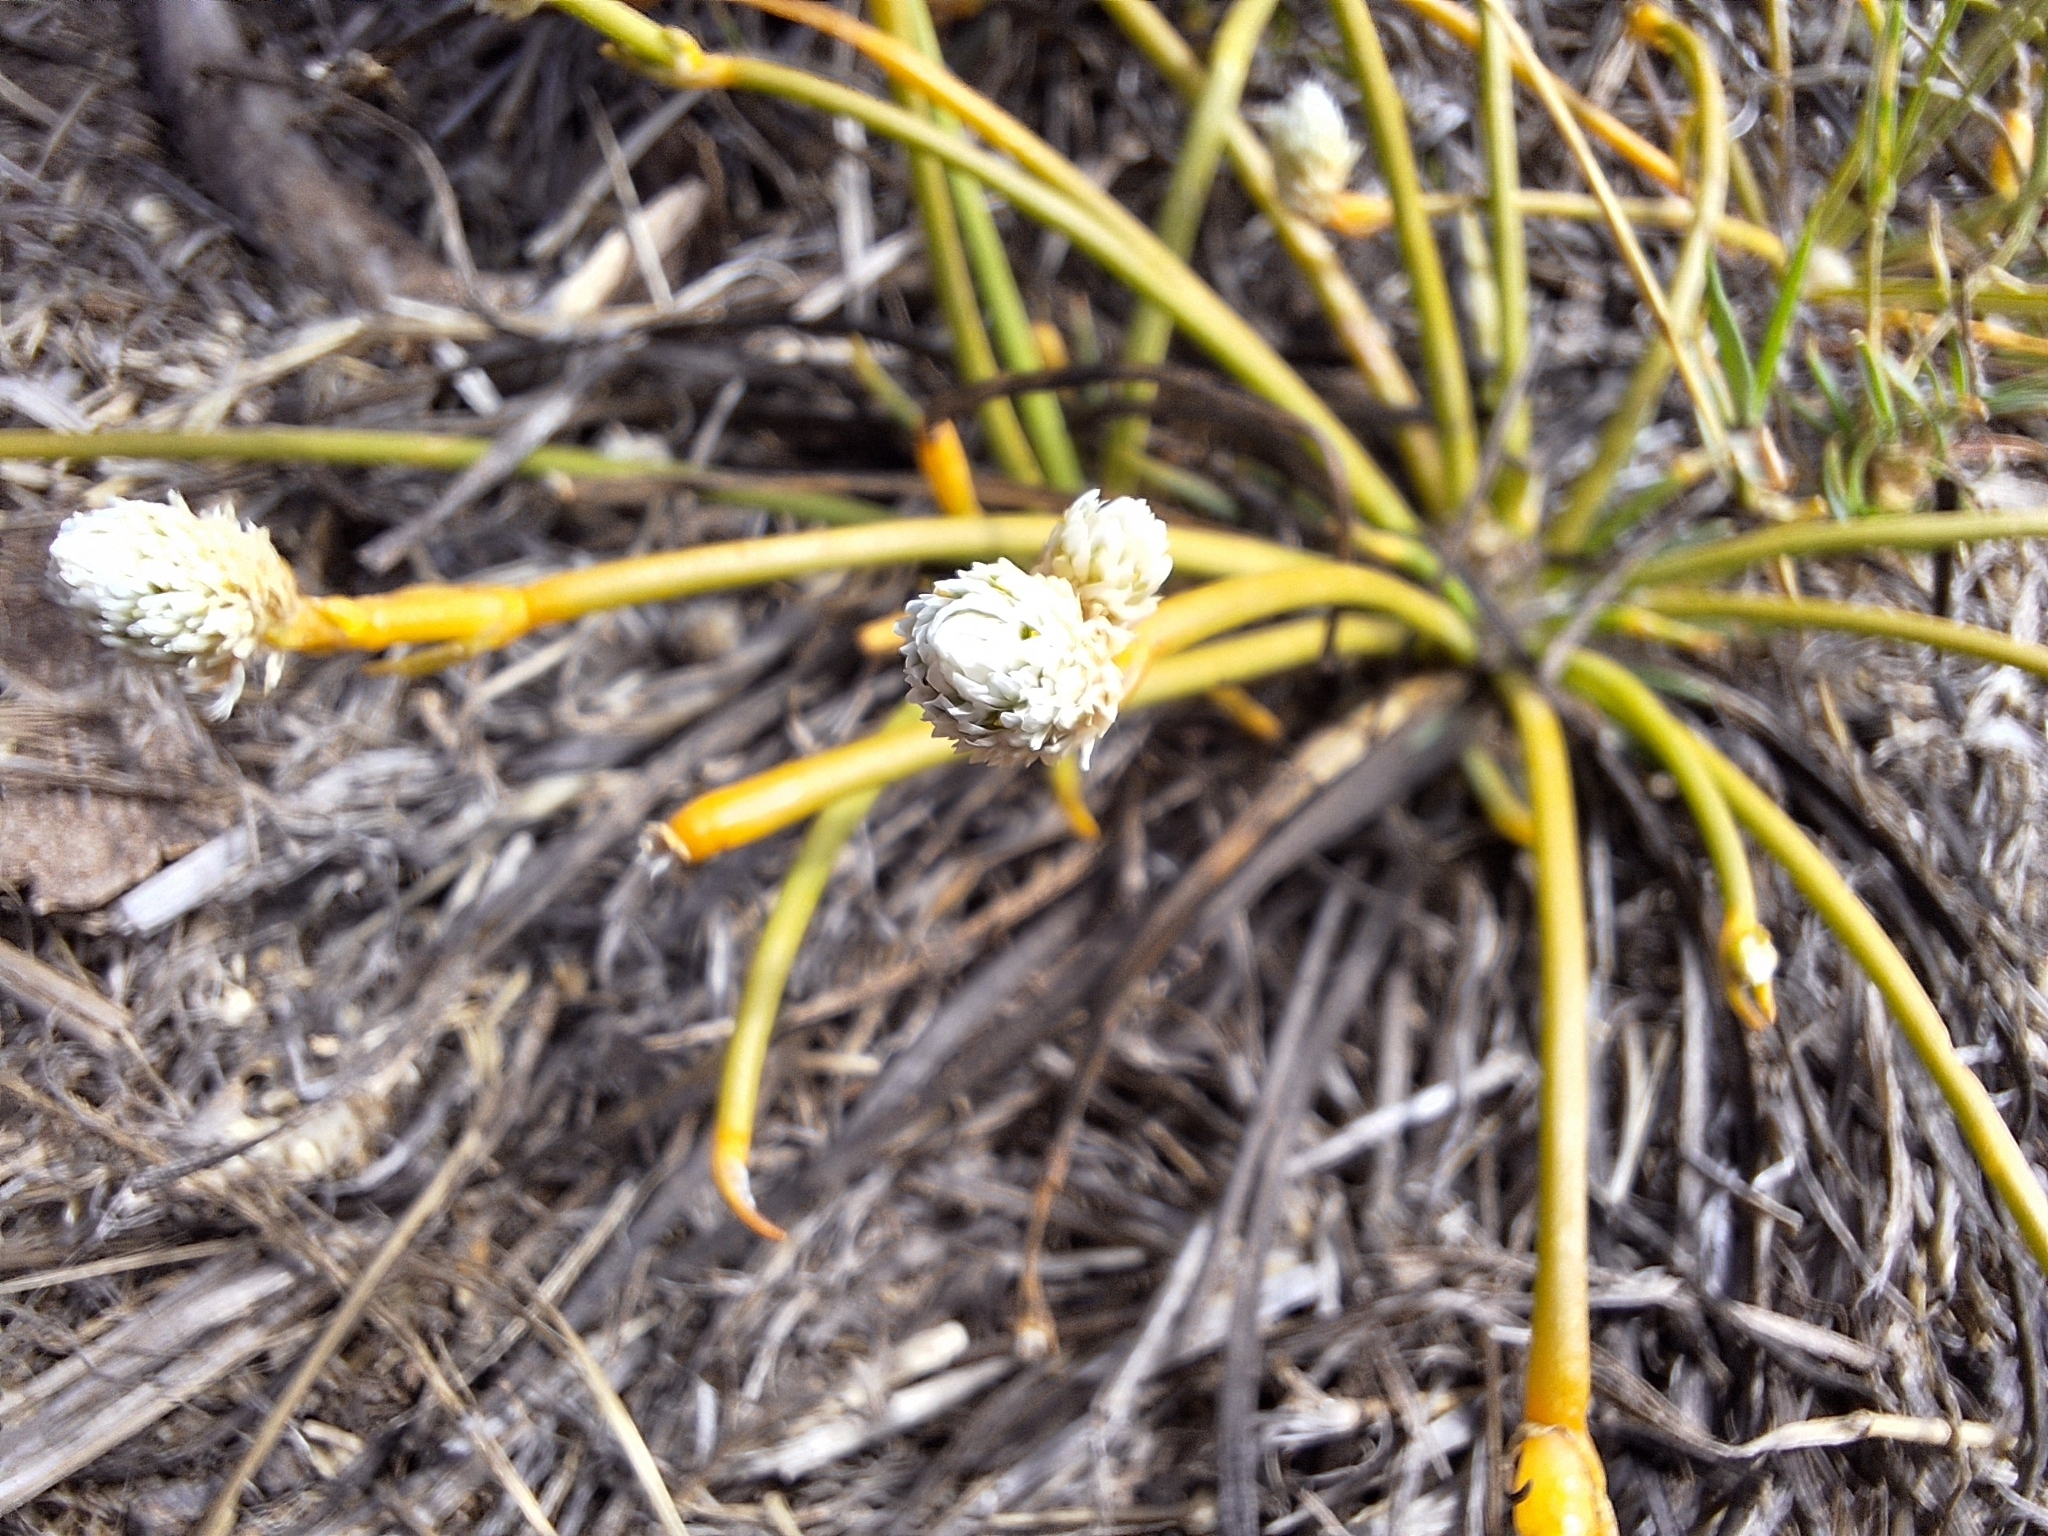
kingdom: Plantae
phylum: Tracheophyta
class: Magnoliopsida
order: Caryophyllales
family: Amaranthaceae
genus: Gomphrena
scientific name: Gomphrena radicata
